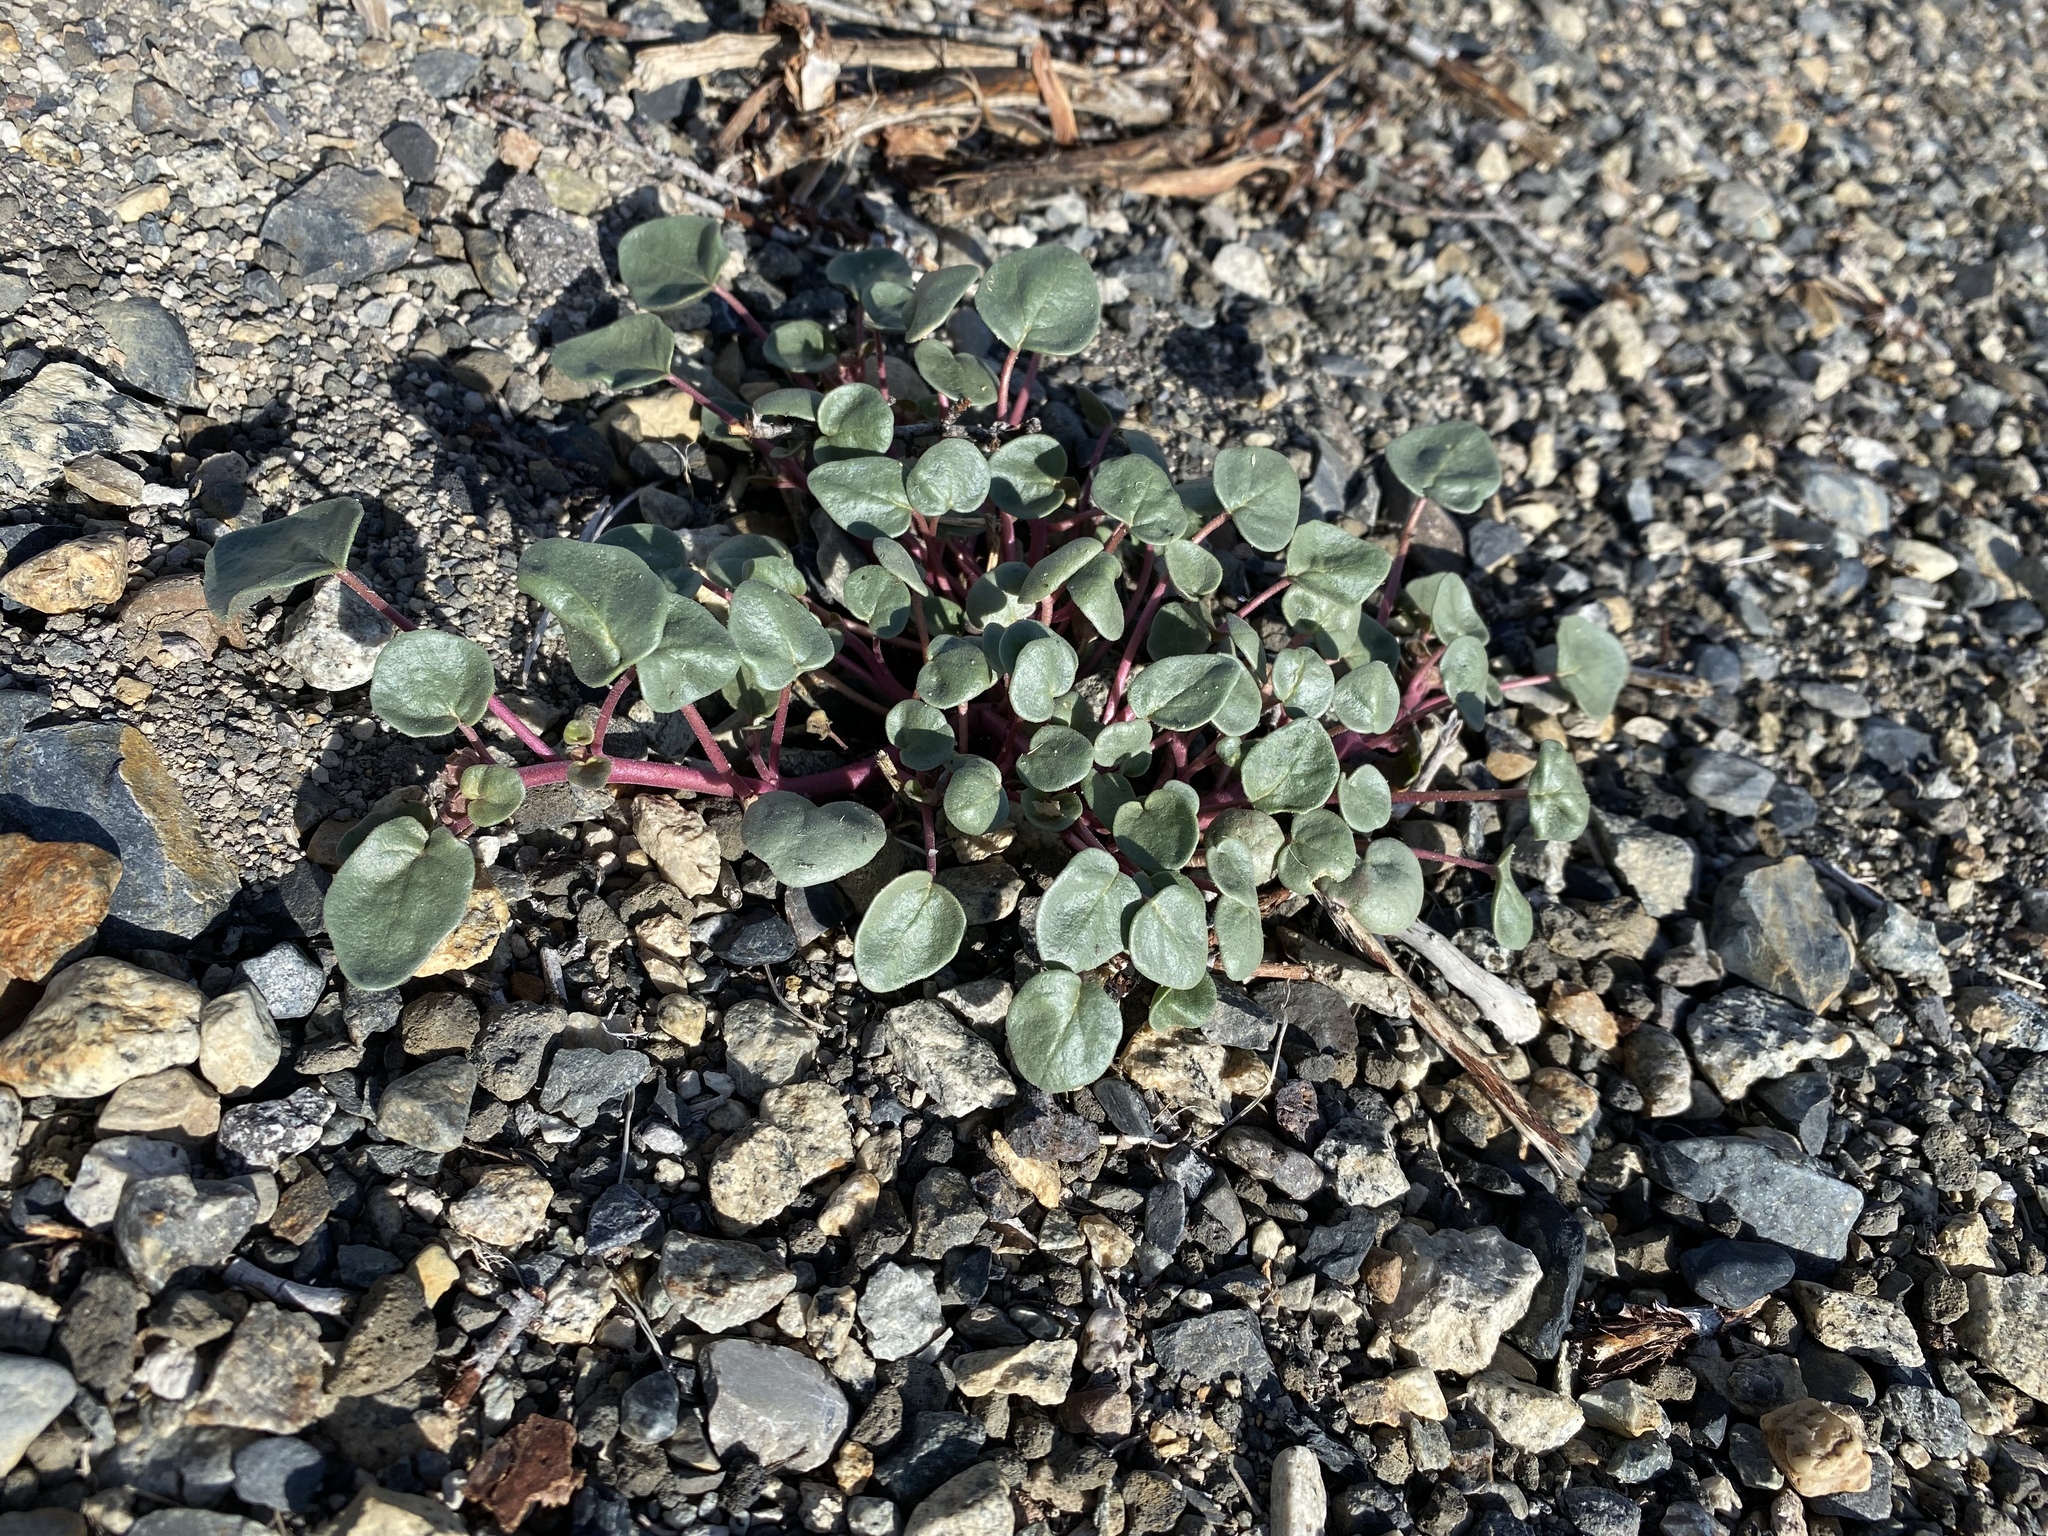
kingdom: Plantae
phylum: Tracheophyta
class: Magnoliopsida
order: Caryophyllales
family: Nyctaginaceae
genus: Abronia
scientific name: Abronia turbinata
